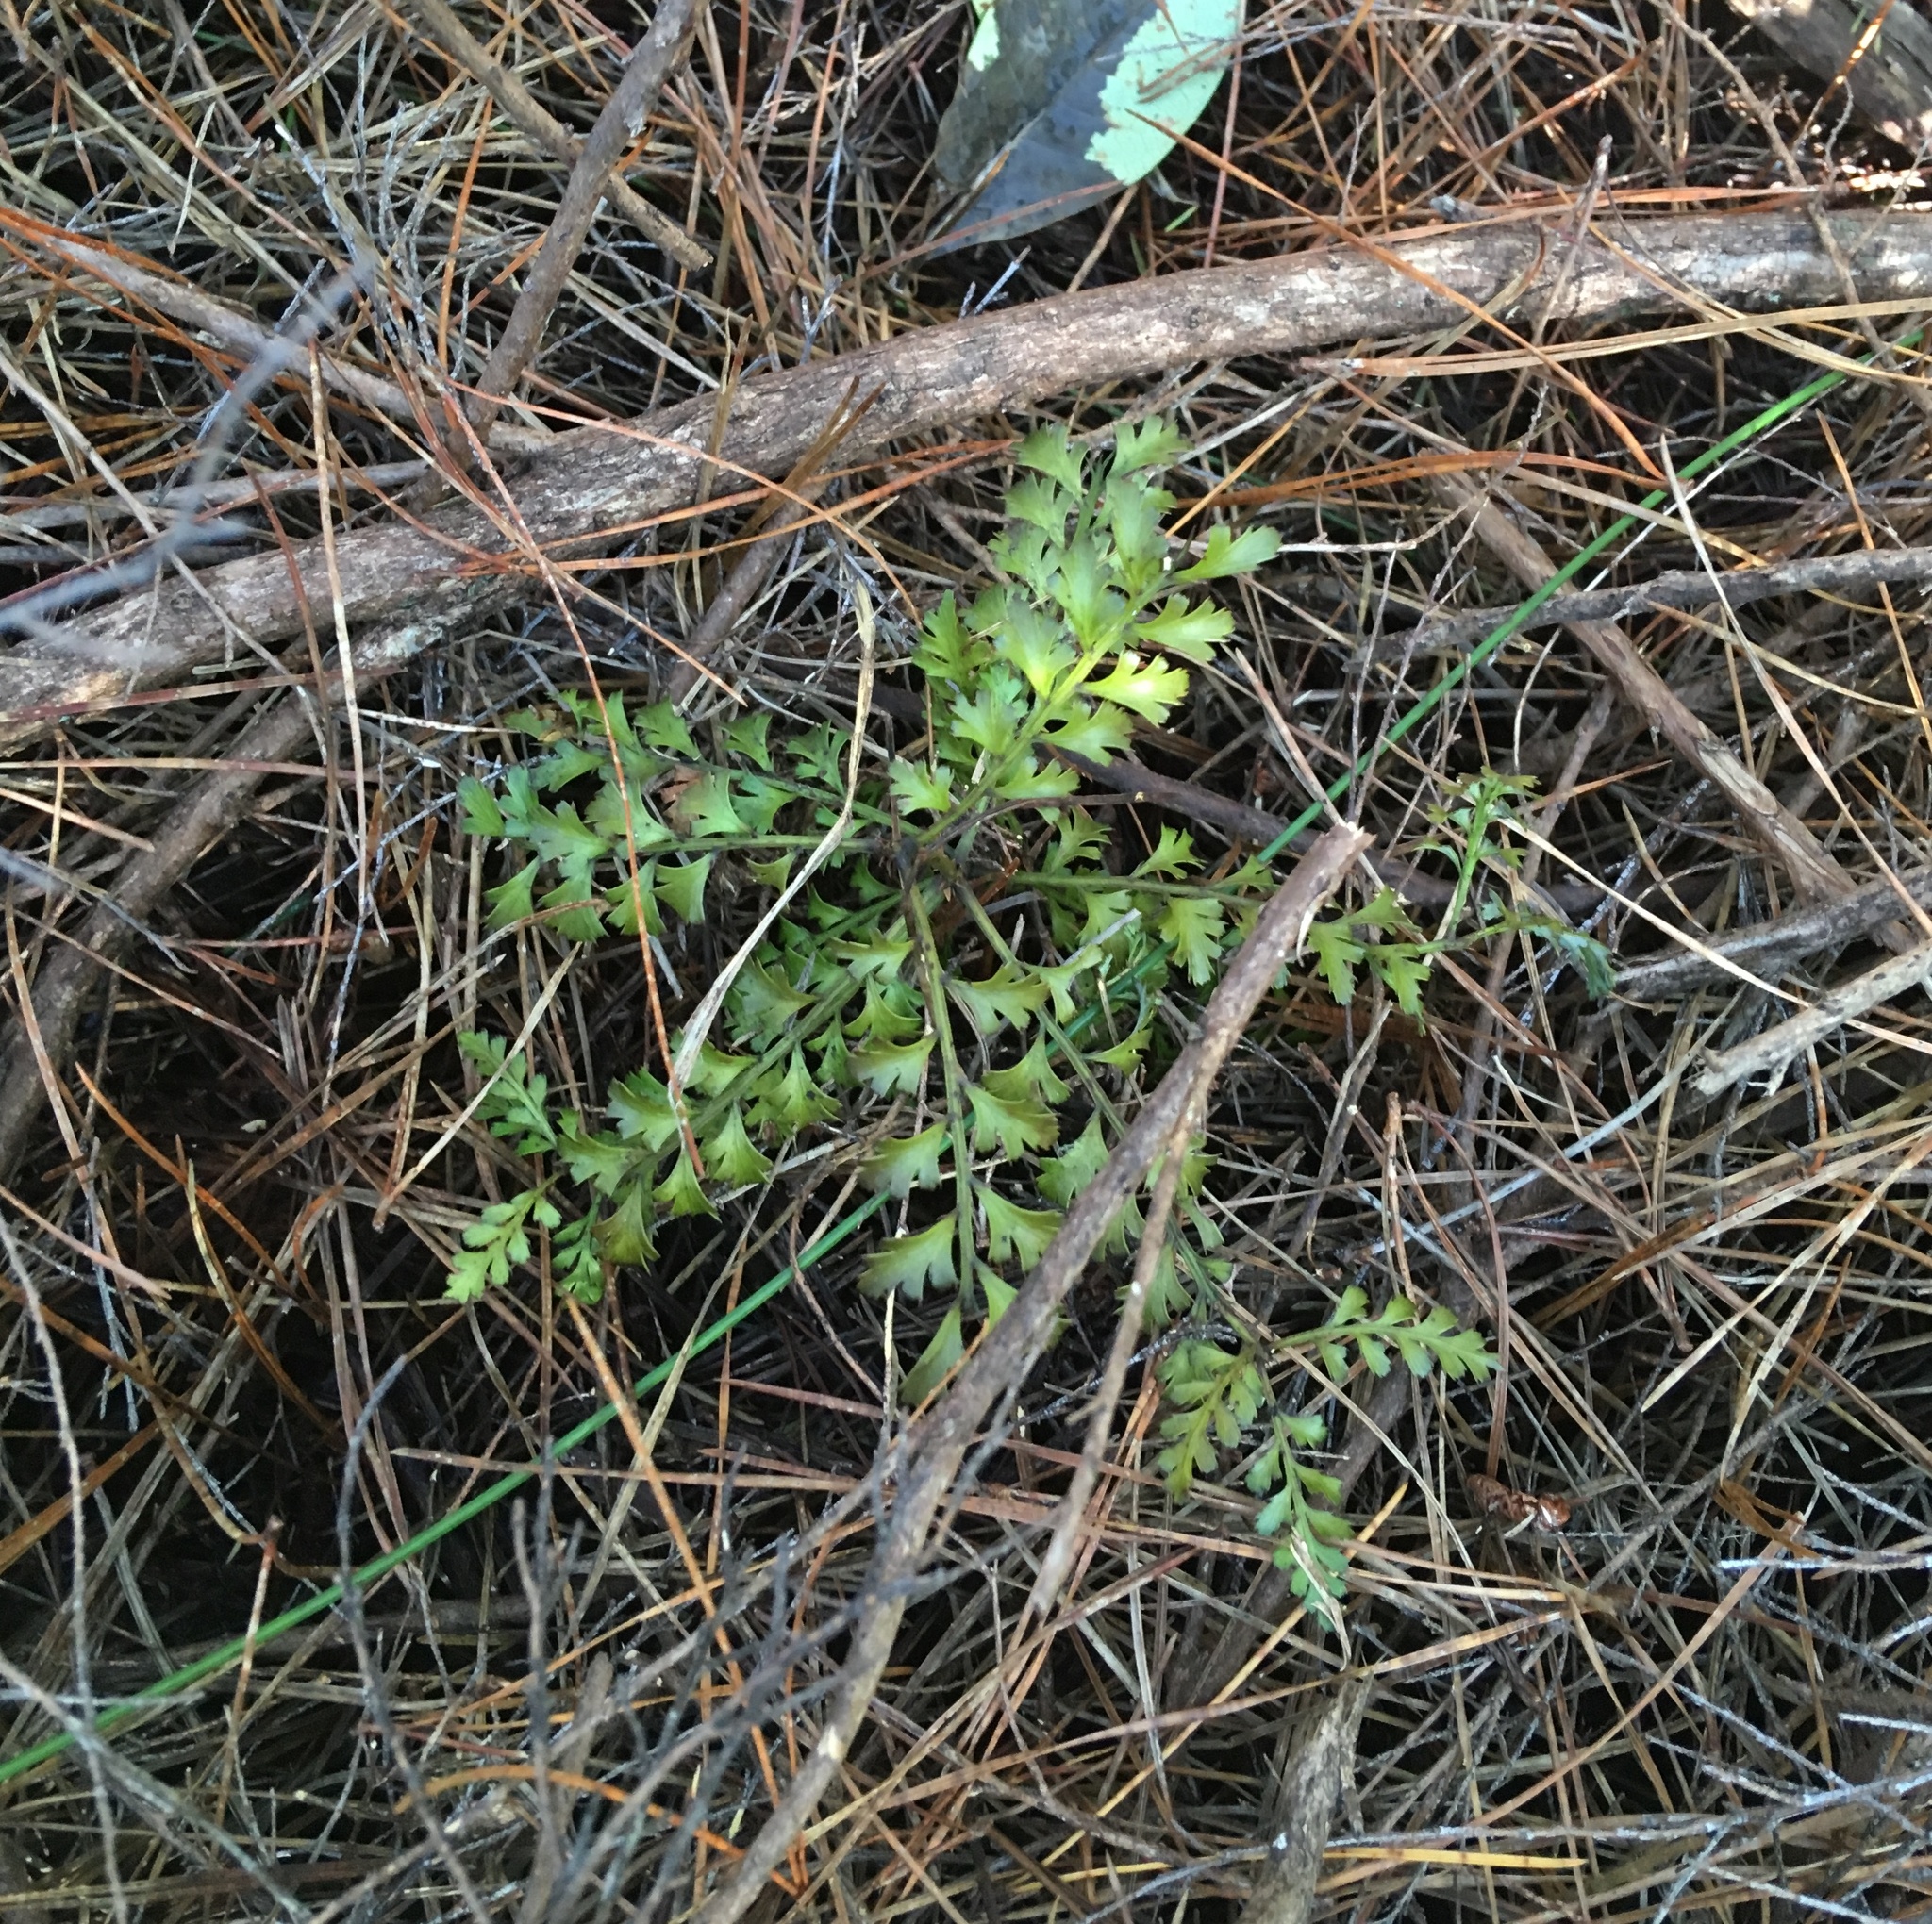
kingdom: Plantae
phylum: Tracheophyta
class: Pinopsida
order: Pinales
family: Phyllocladaceae
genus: Phyllocladus
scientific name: Phyllocladus trichomanoides
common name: Celery pine
